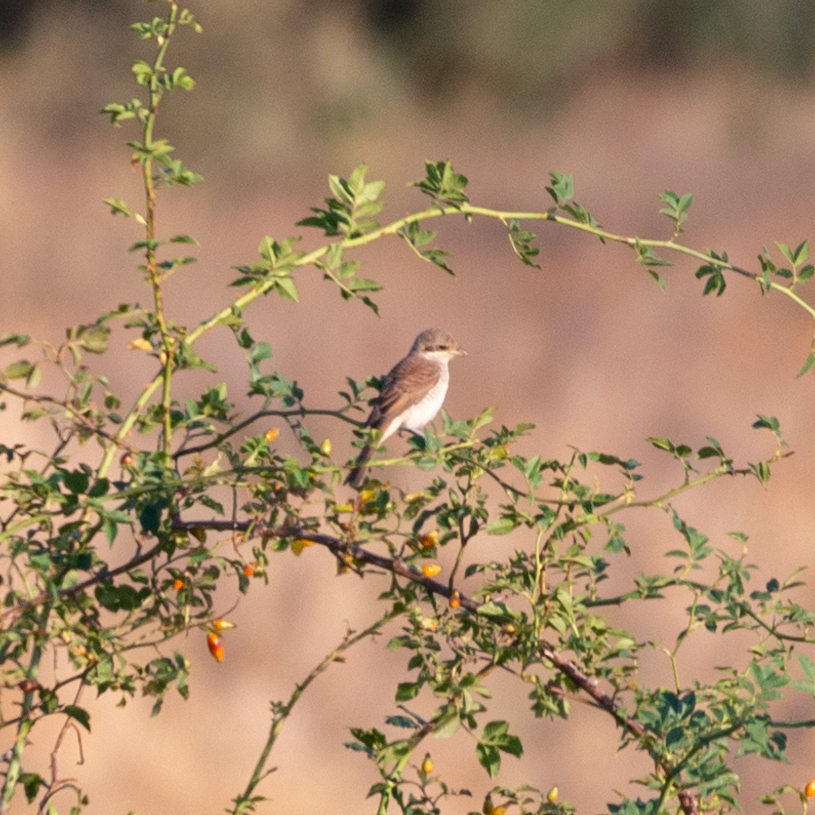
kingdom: Animalia
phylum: Chordata
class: Aves
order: Passeriformes
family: Laniidae
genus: Lanius
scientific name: Lanius collurio
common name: Red-backed shrike
